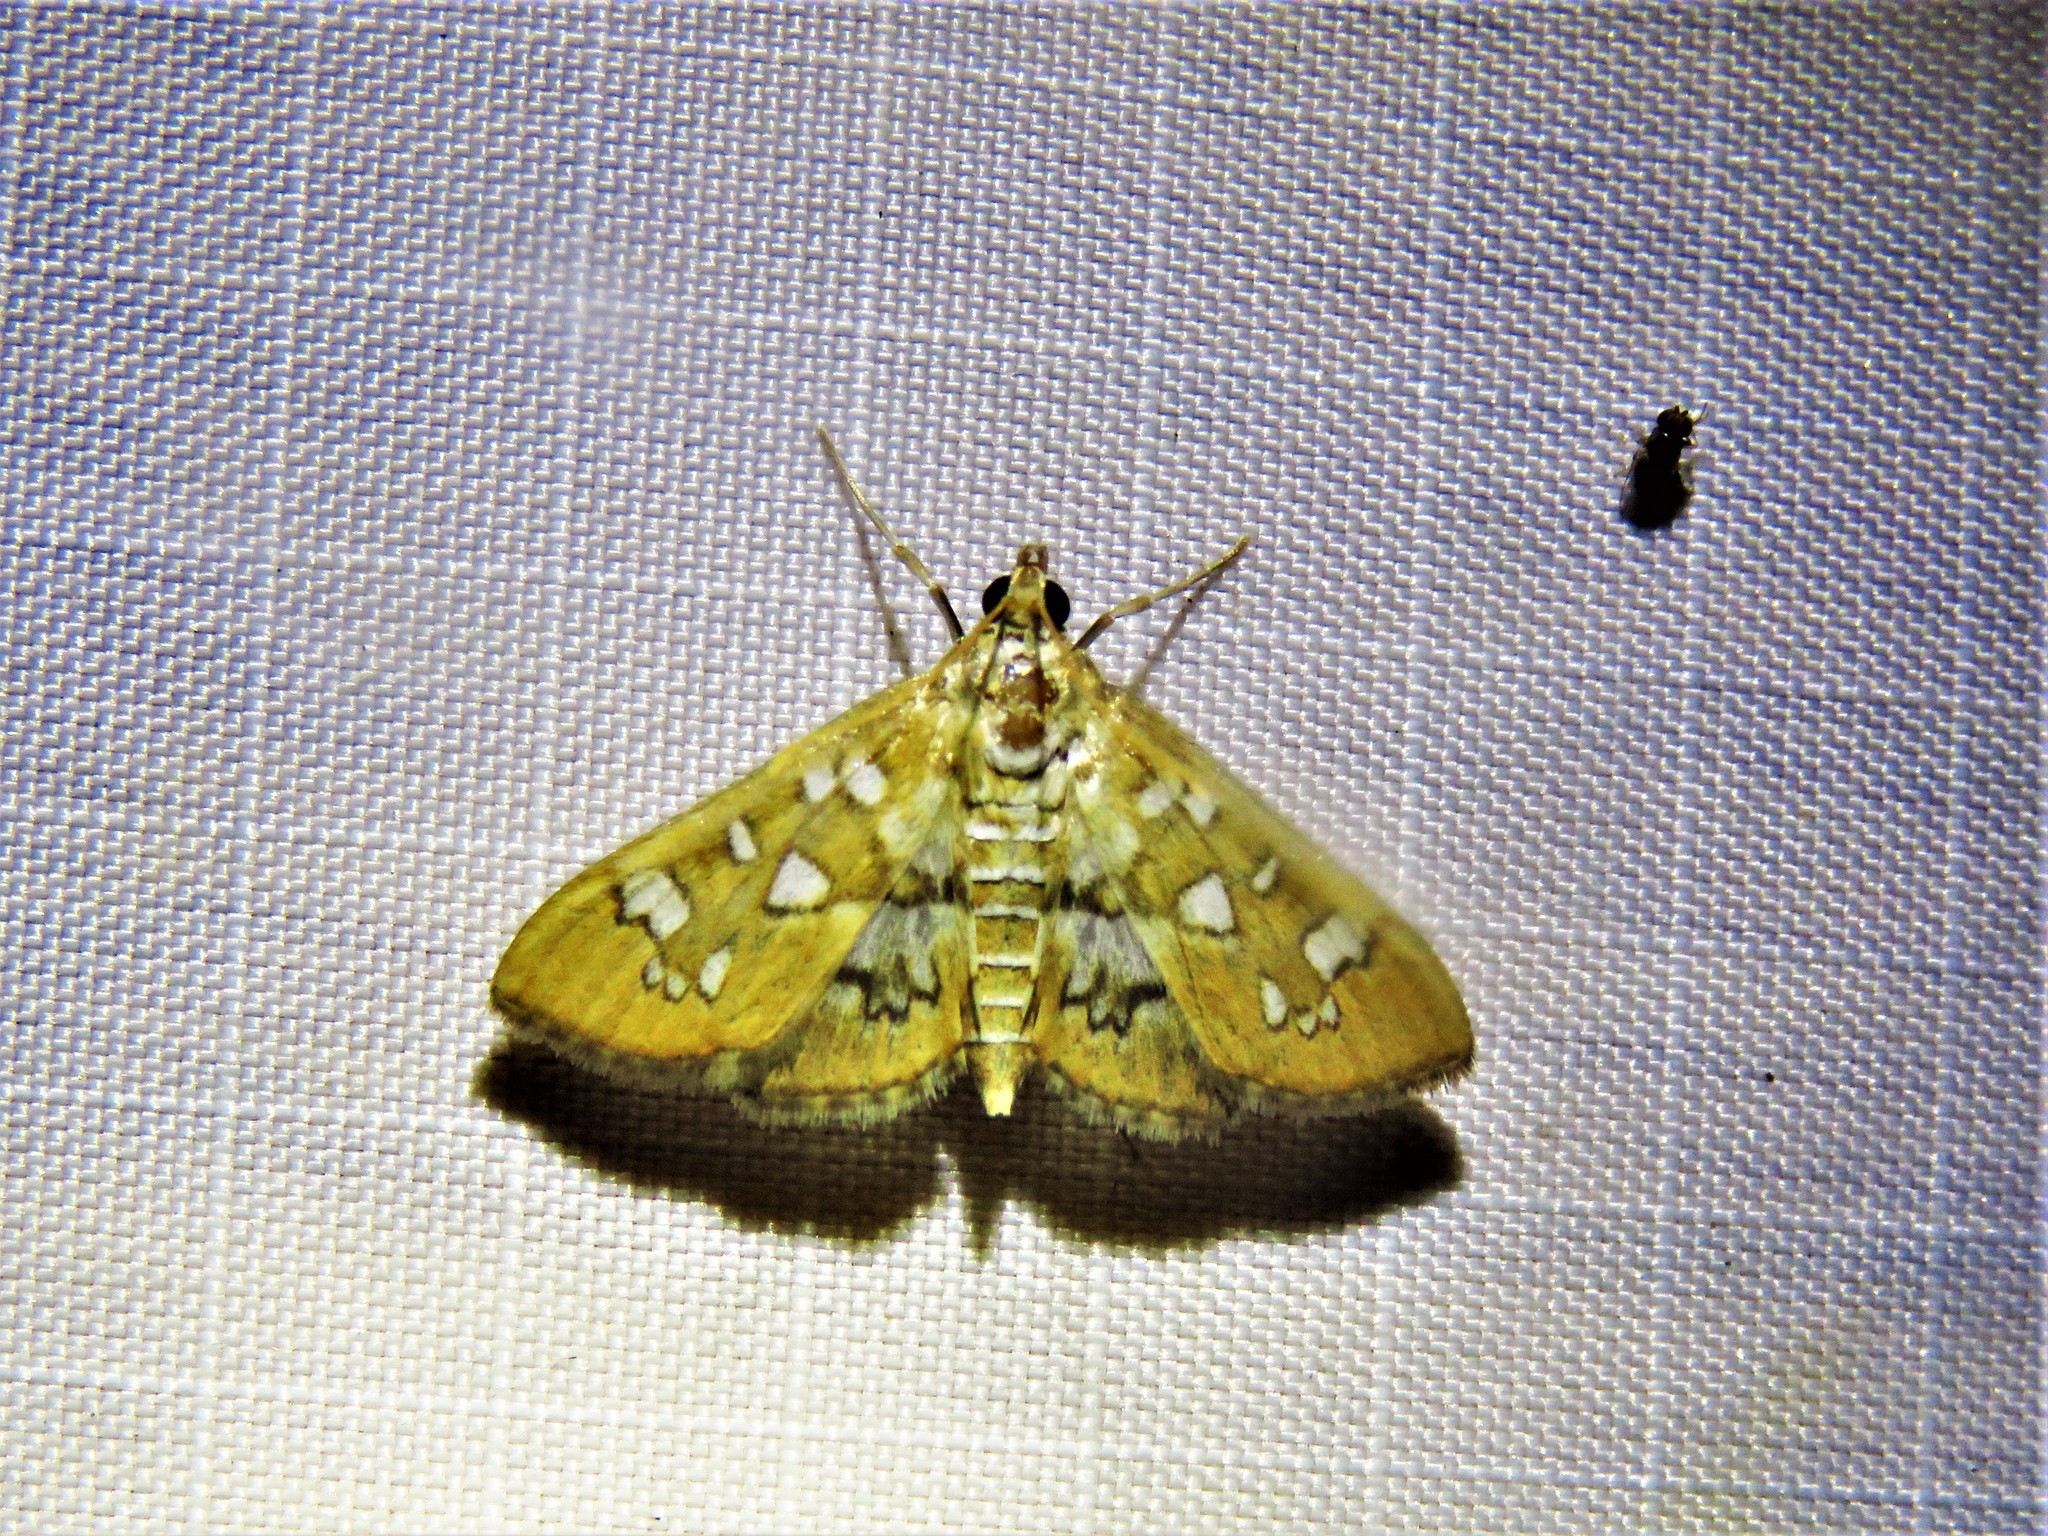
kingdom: Animalia
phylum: Arthropoda
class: Insecta
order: Lepidoptera
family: Crambidae
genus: Samea
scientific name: Samea baccatalis
